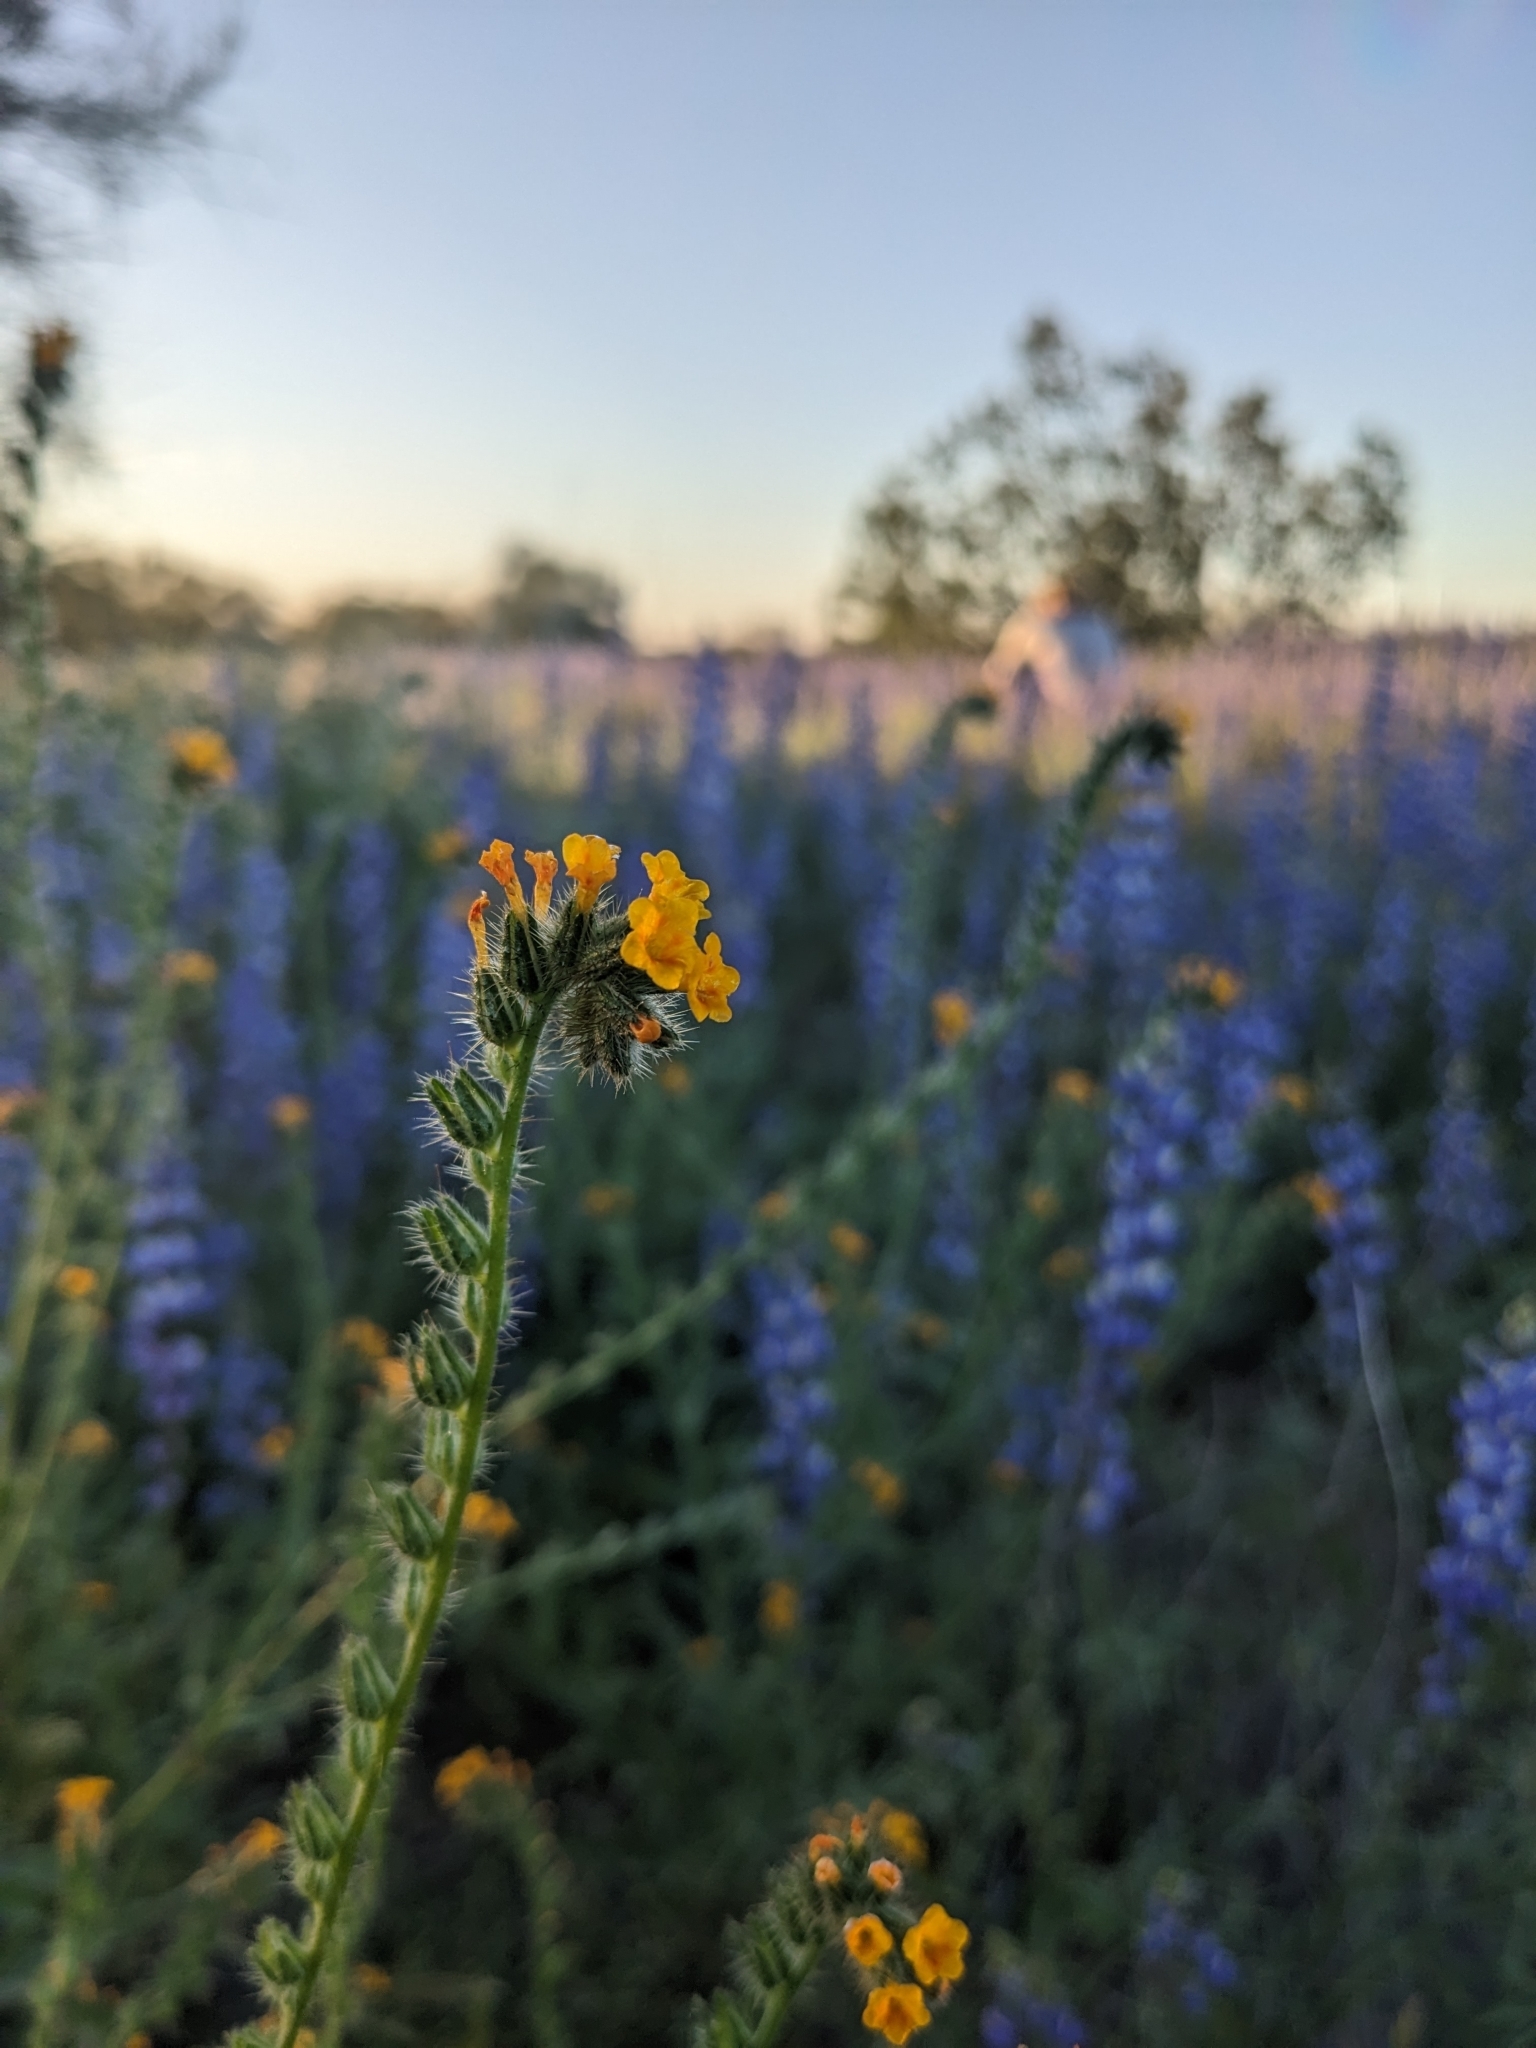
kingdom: Plantae
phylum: Tracheophyta
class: Magnoliopsida
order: Boraginales
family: Boraginaceae
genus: Amsinckia
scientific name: Amsinckia menziesii
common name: Menzies' fiddleneck
